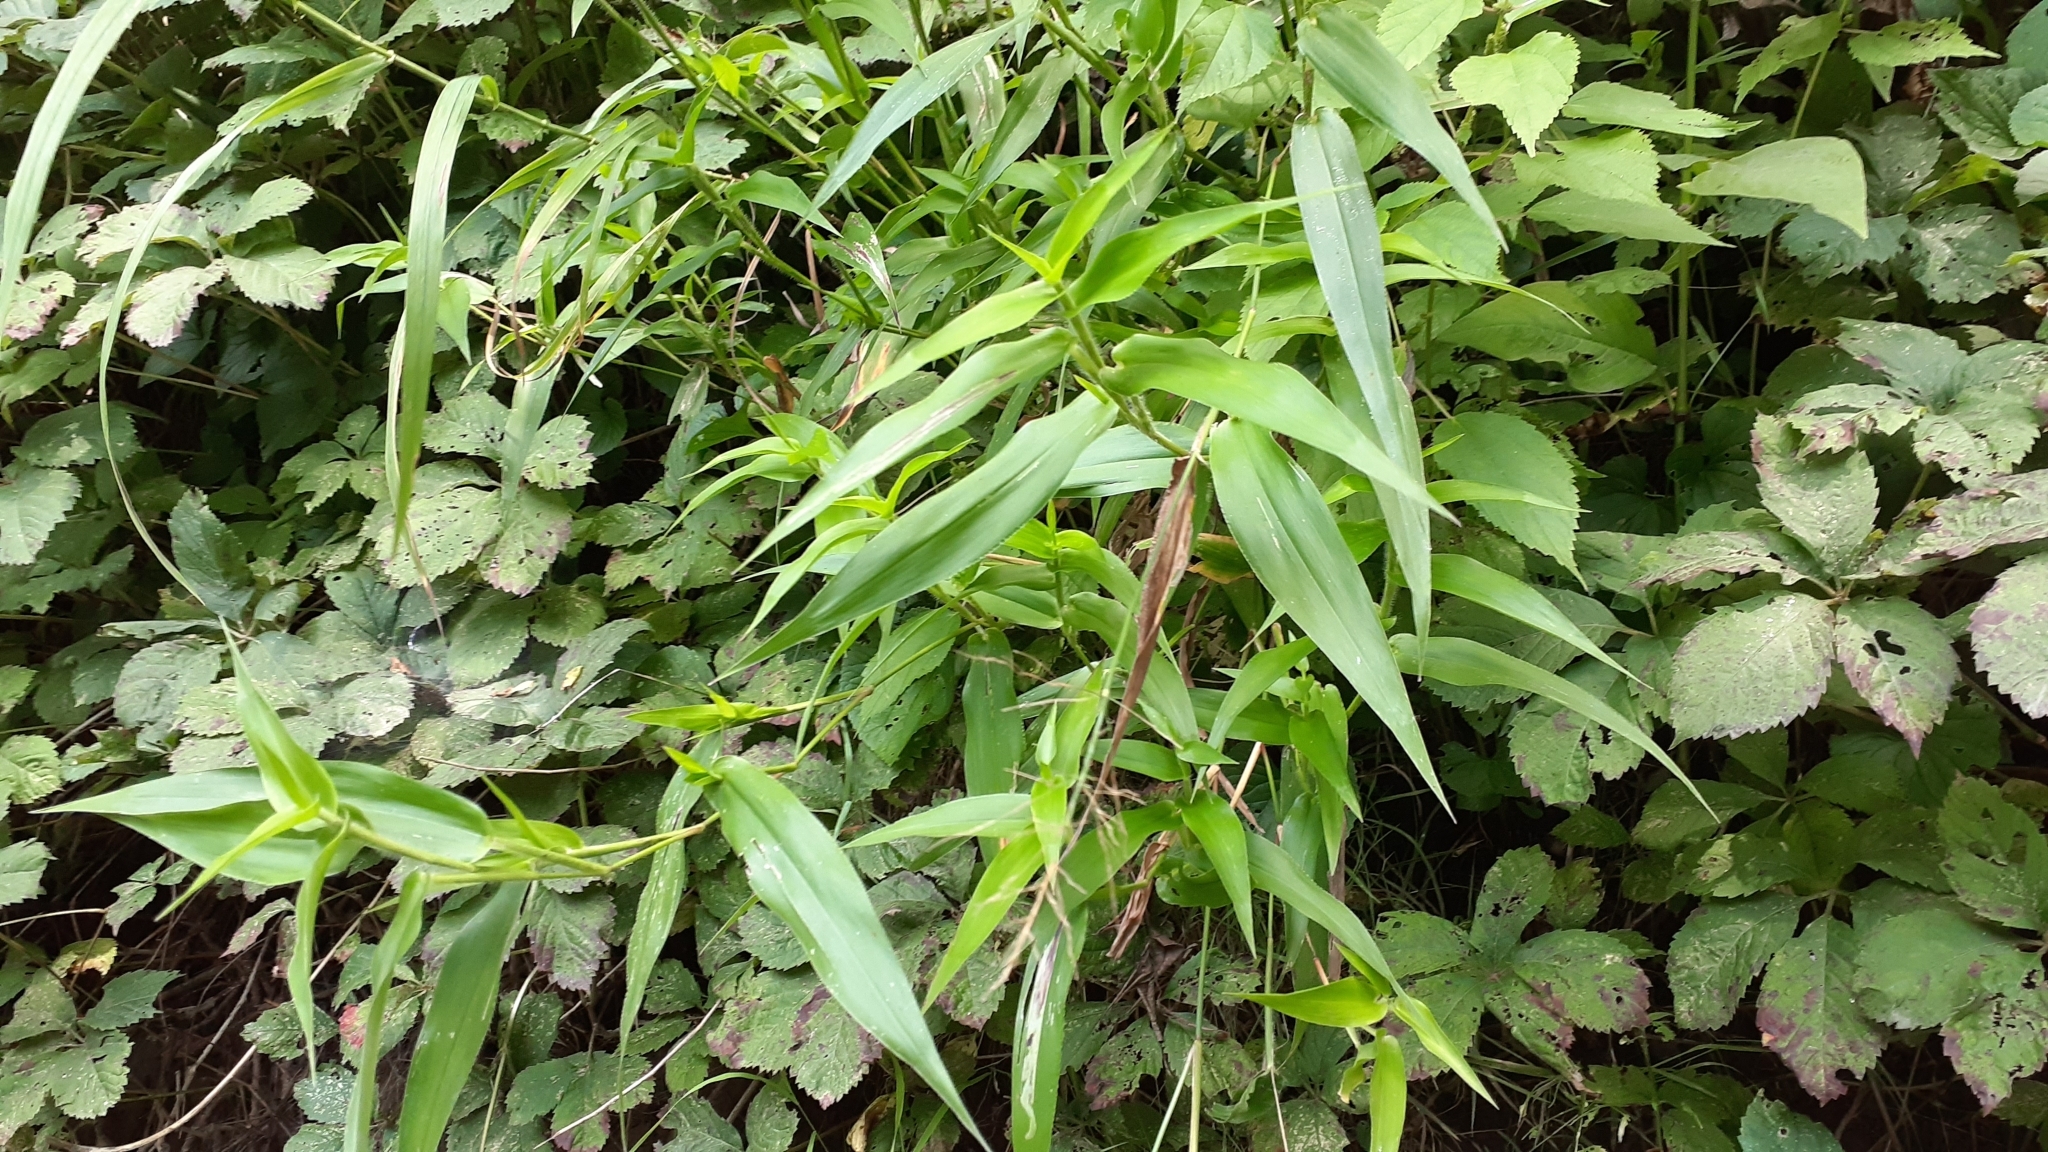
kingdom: Plantae
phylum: Tracheophyta
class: Liliopsida
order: Poales
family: Poaceae
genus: Dichanthelium
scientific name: Dichanthelium clandestinum
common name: Deer-tongue grass
